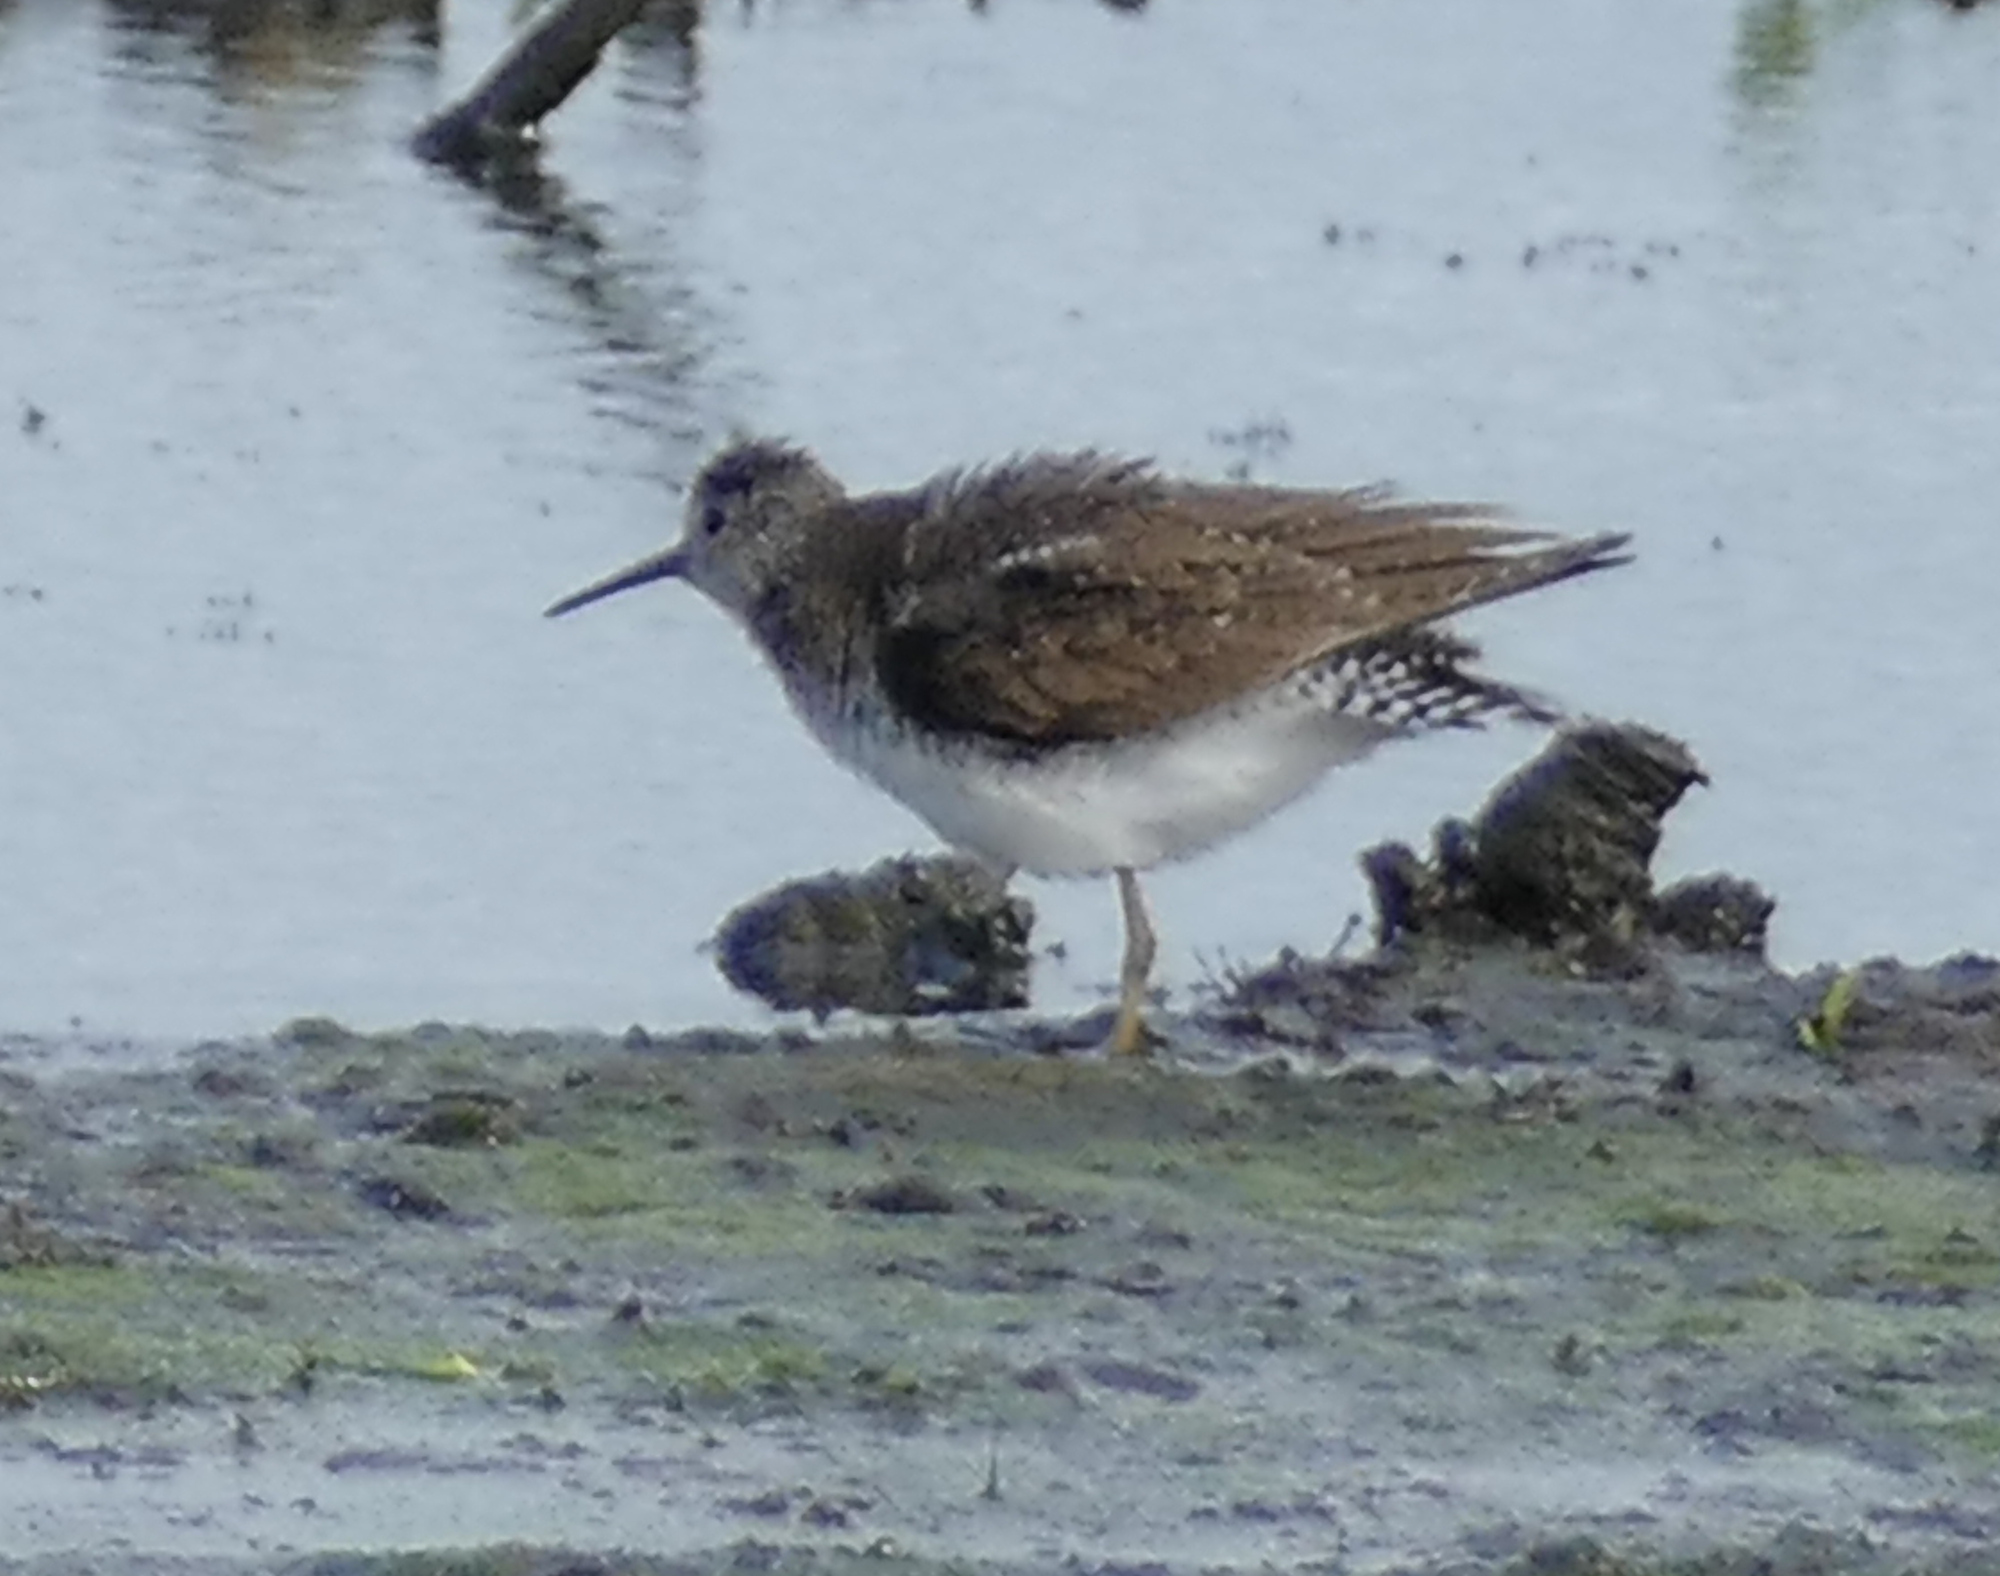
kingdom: Animalia
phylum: Chordata
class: Aves
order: Charadriiformes
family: Scolopacidae
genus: Tringa
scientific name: Tringa solitaria
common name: Solitary sandpiper
